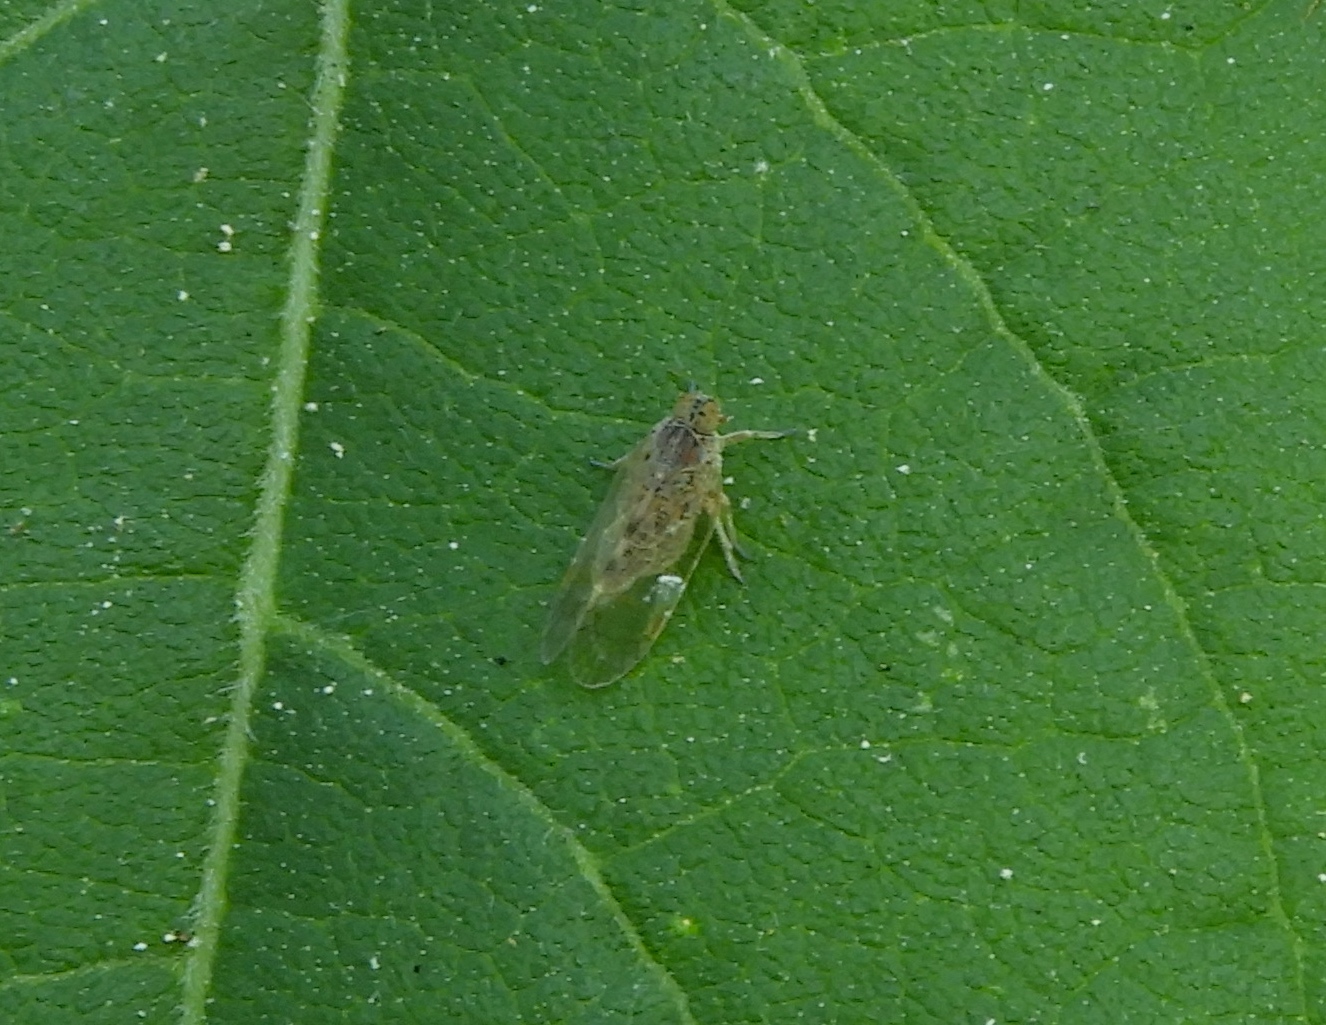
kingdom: Animalia
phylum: Arthropoda
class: Insecta
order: Hemiptera
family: Cixiidae
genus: Oecleus
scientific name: Oecleus
